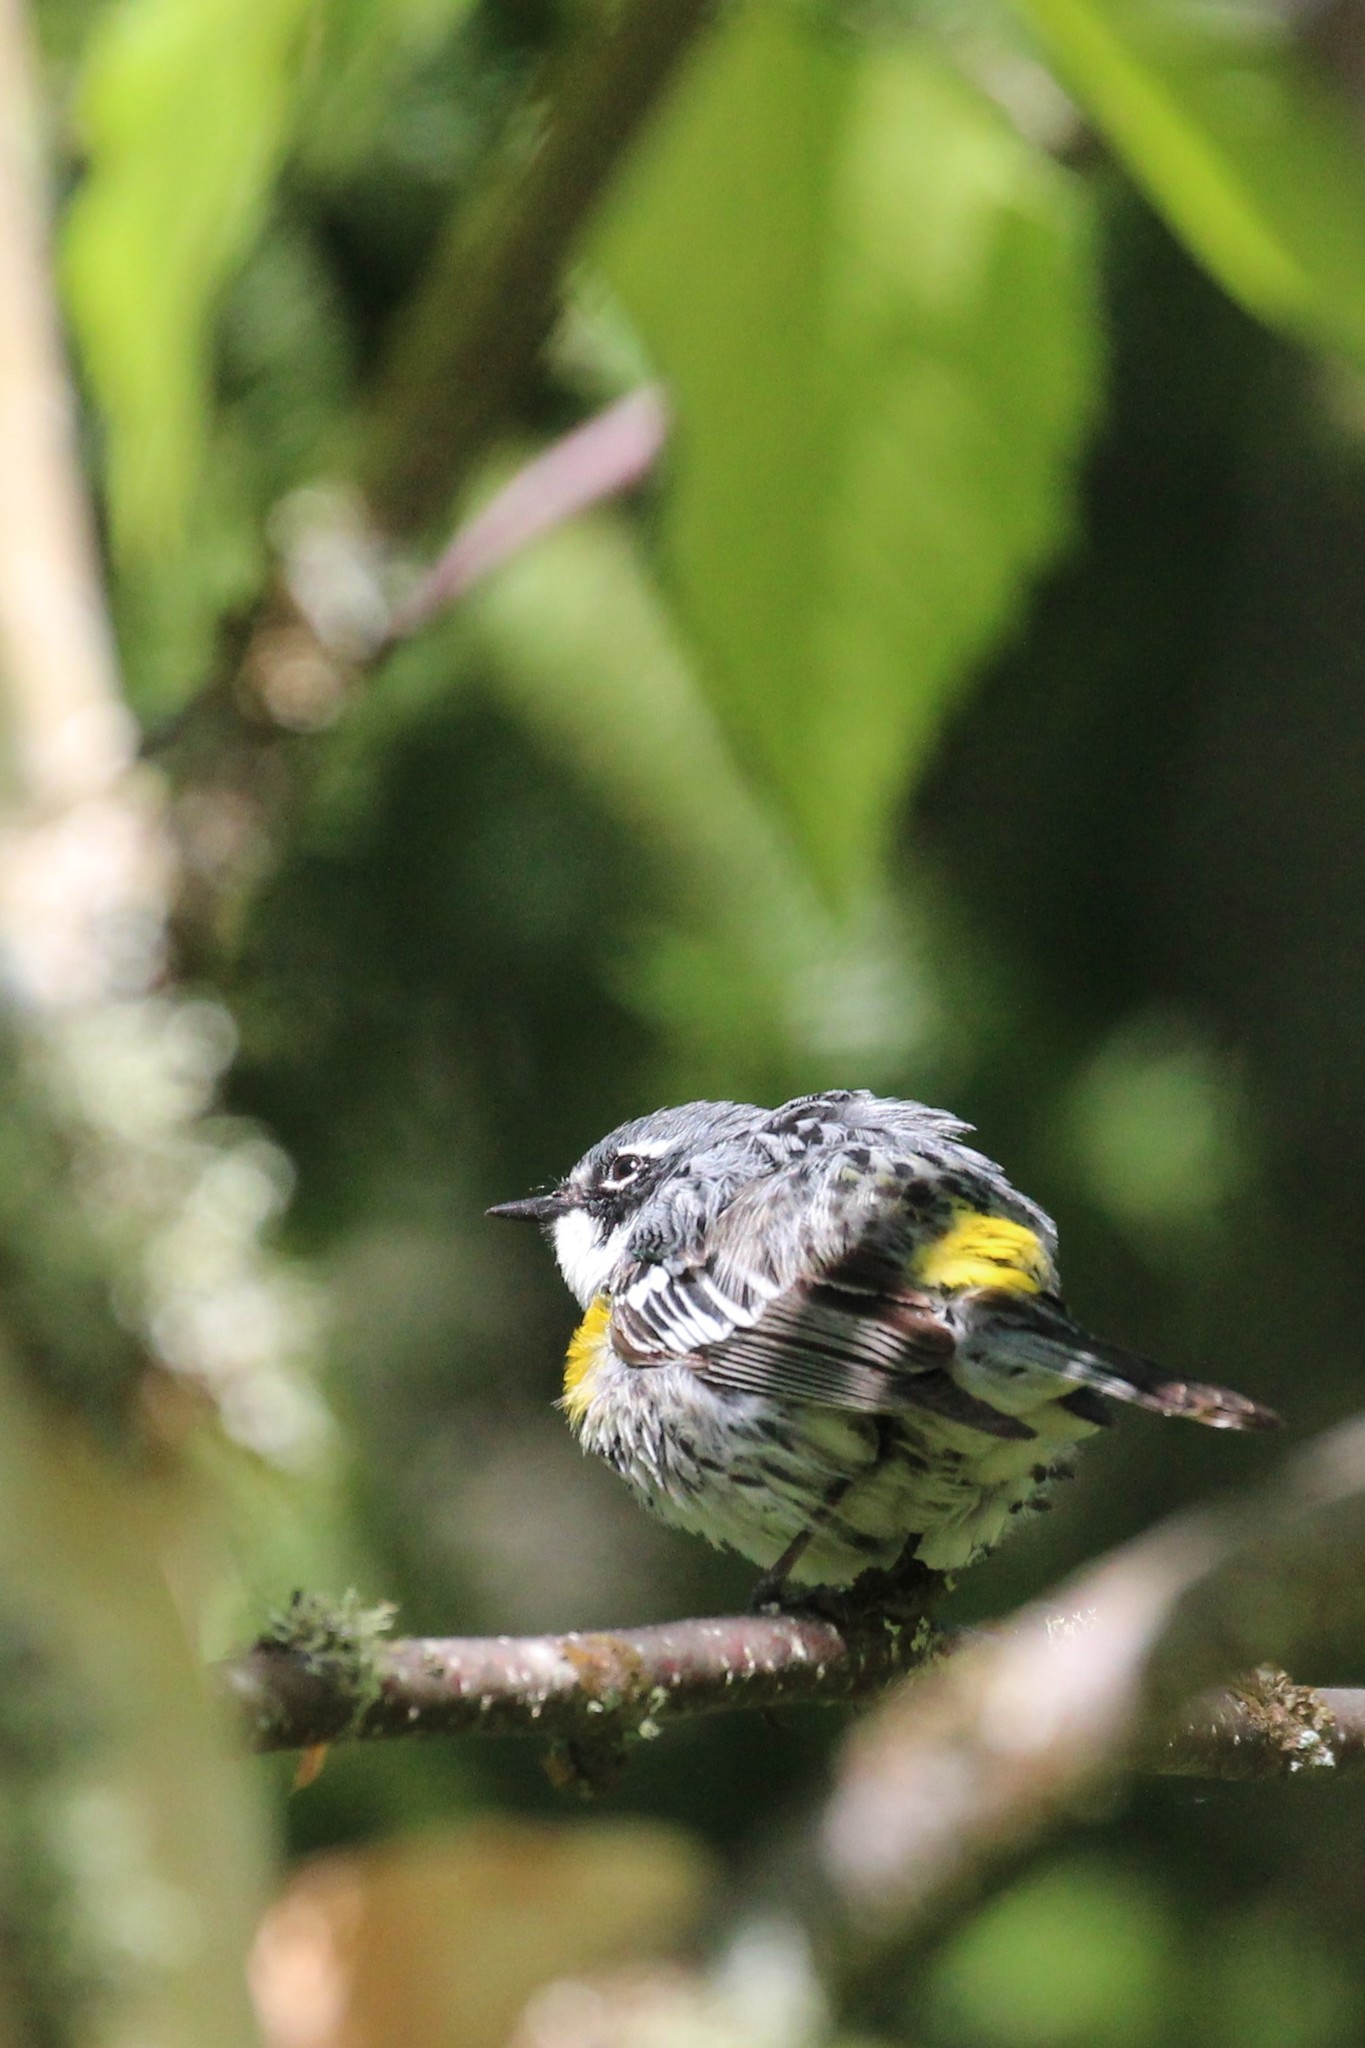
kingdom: Animalia
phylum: Chordata
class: Aves
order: Passeriformes
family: Parulidae
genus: Setophaga
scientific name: Setophaga coronata
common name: Myrtle warbler
